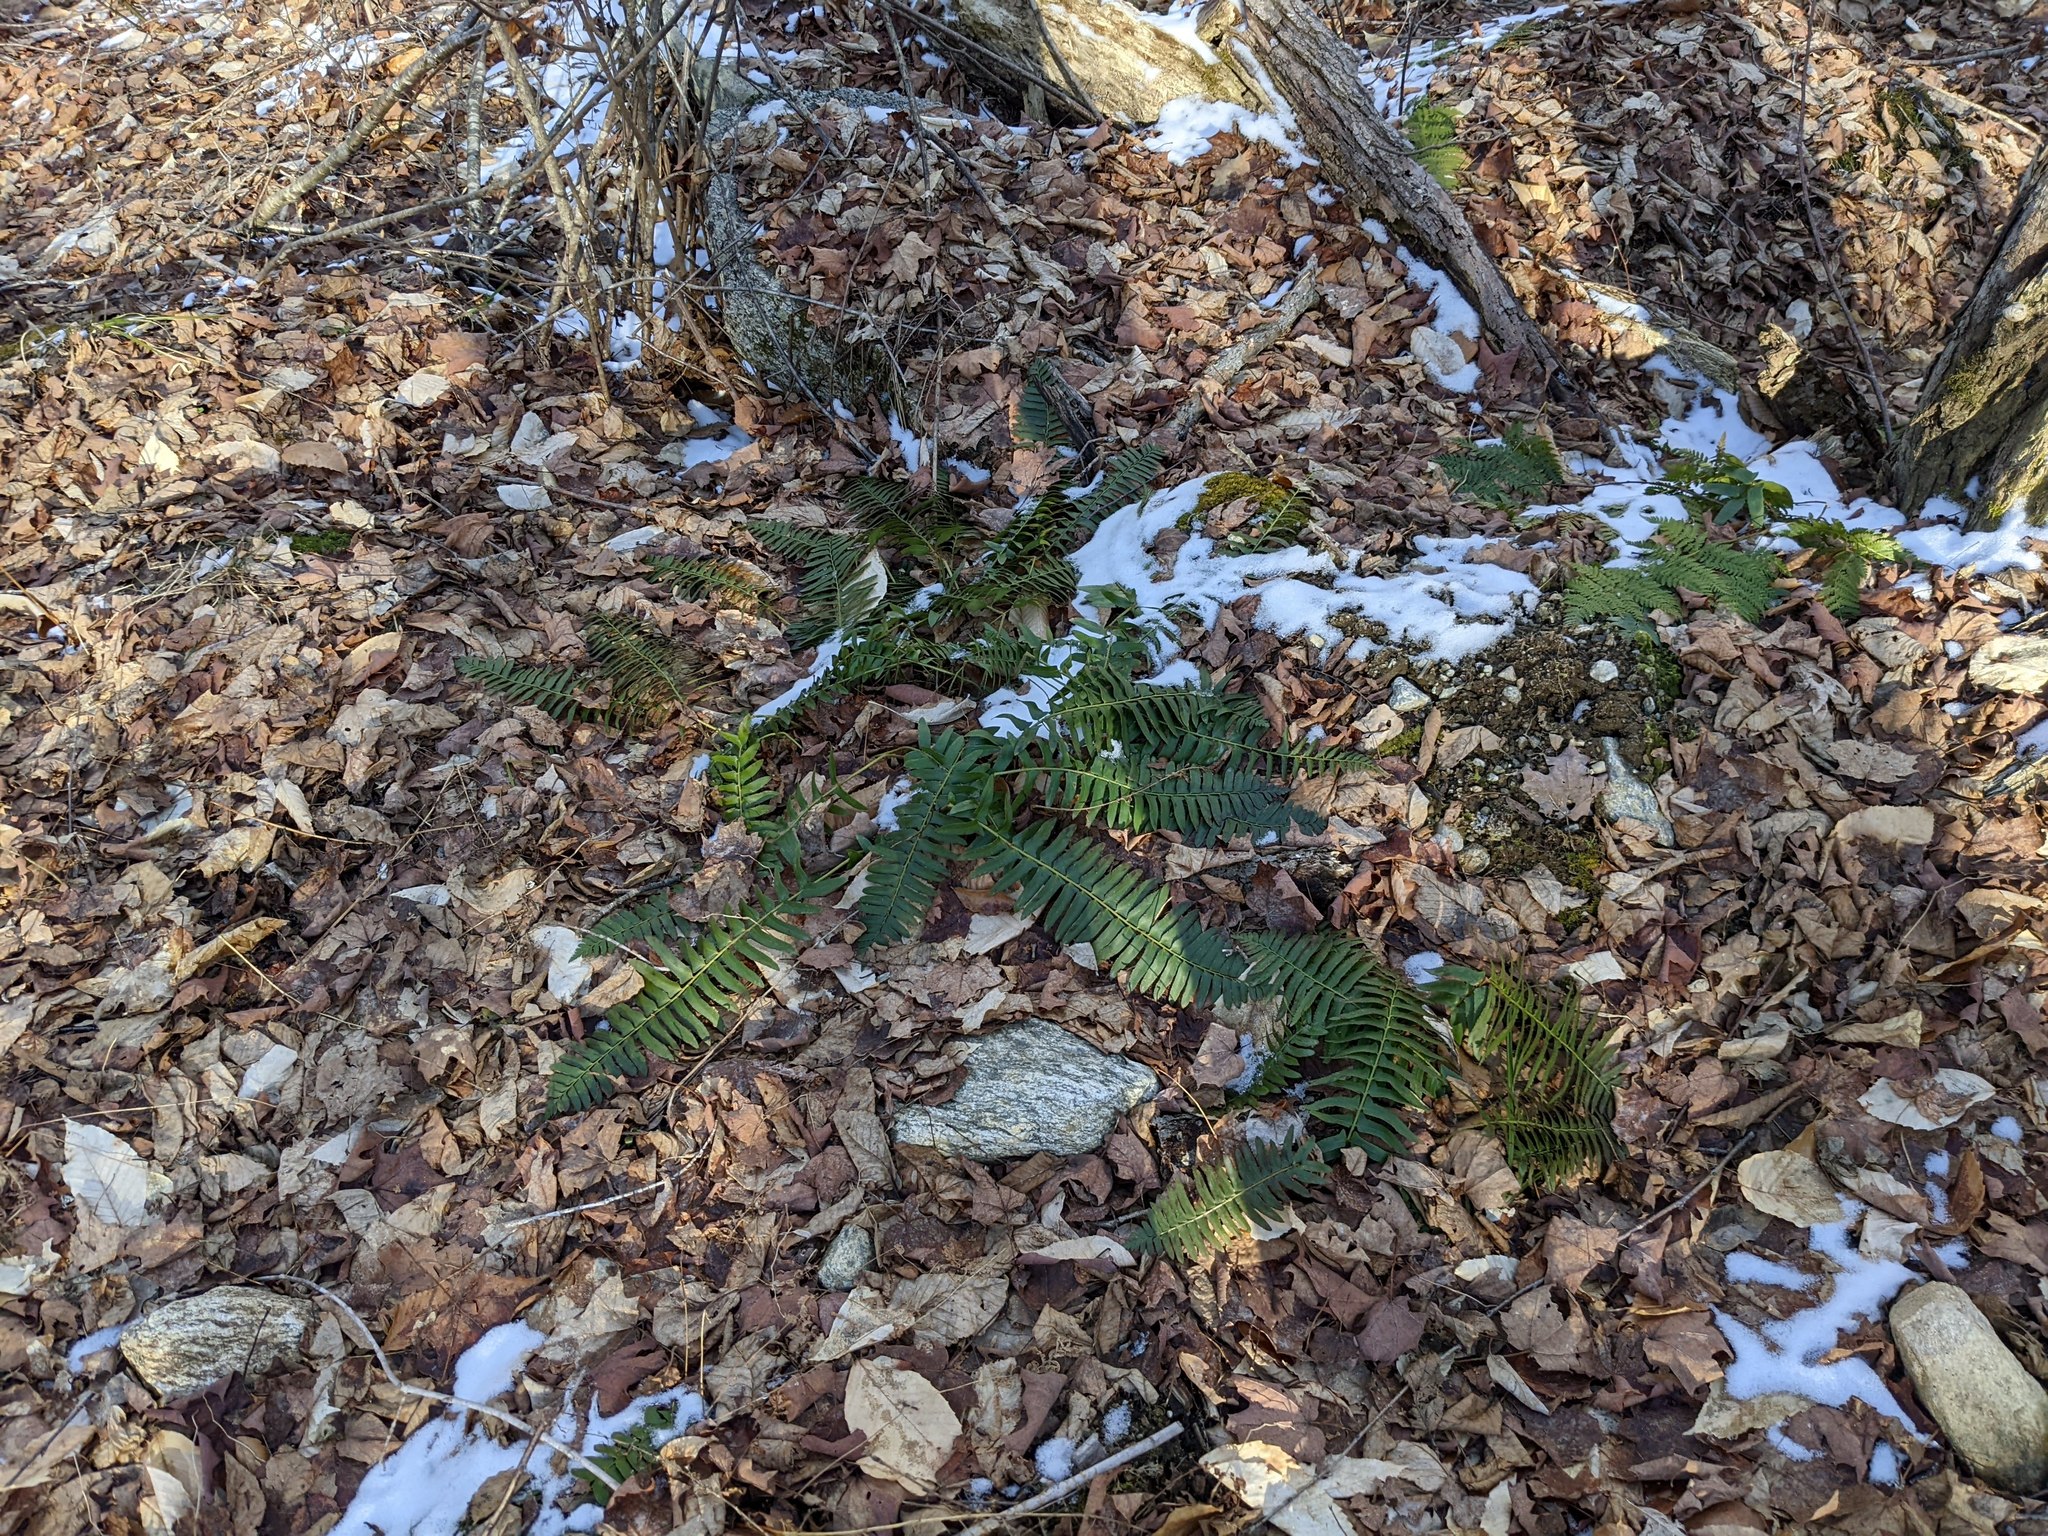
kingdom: Plantae
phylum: Tracheophyta
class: Polypodiopsida
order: Polypodiales
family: Dryopteridaceae
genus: Polystichum
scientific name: Polystichum acrostichoides
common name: Christmas fern
